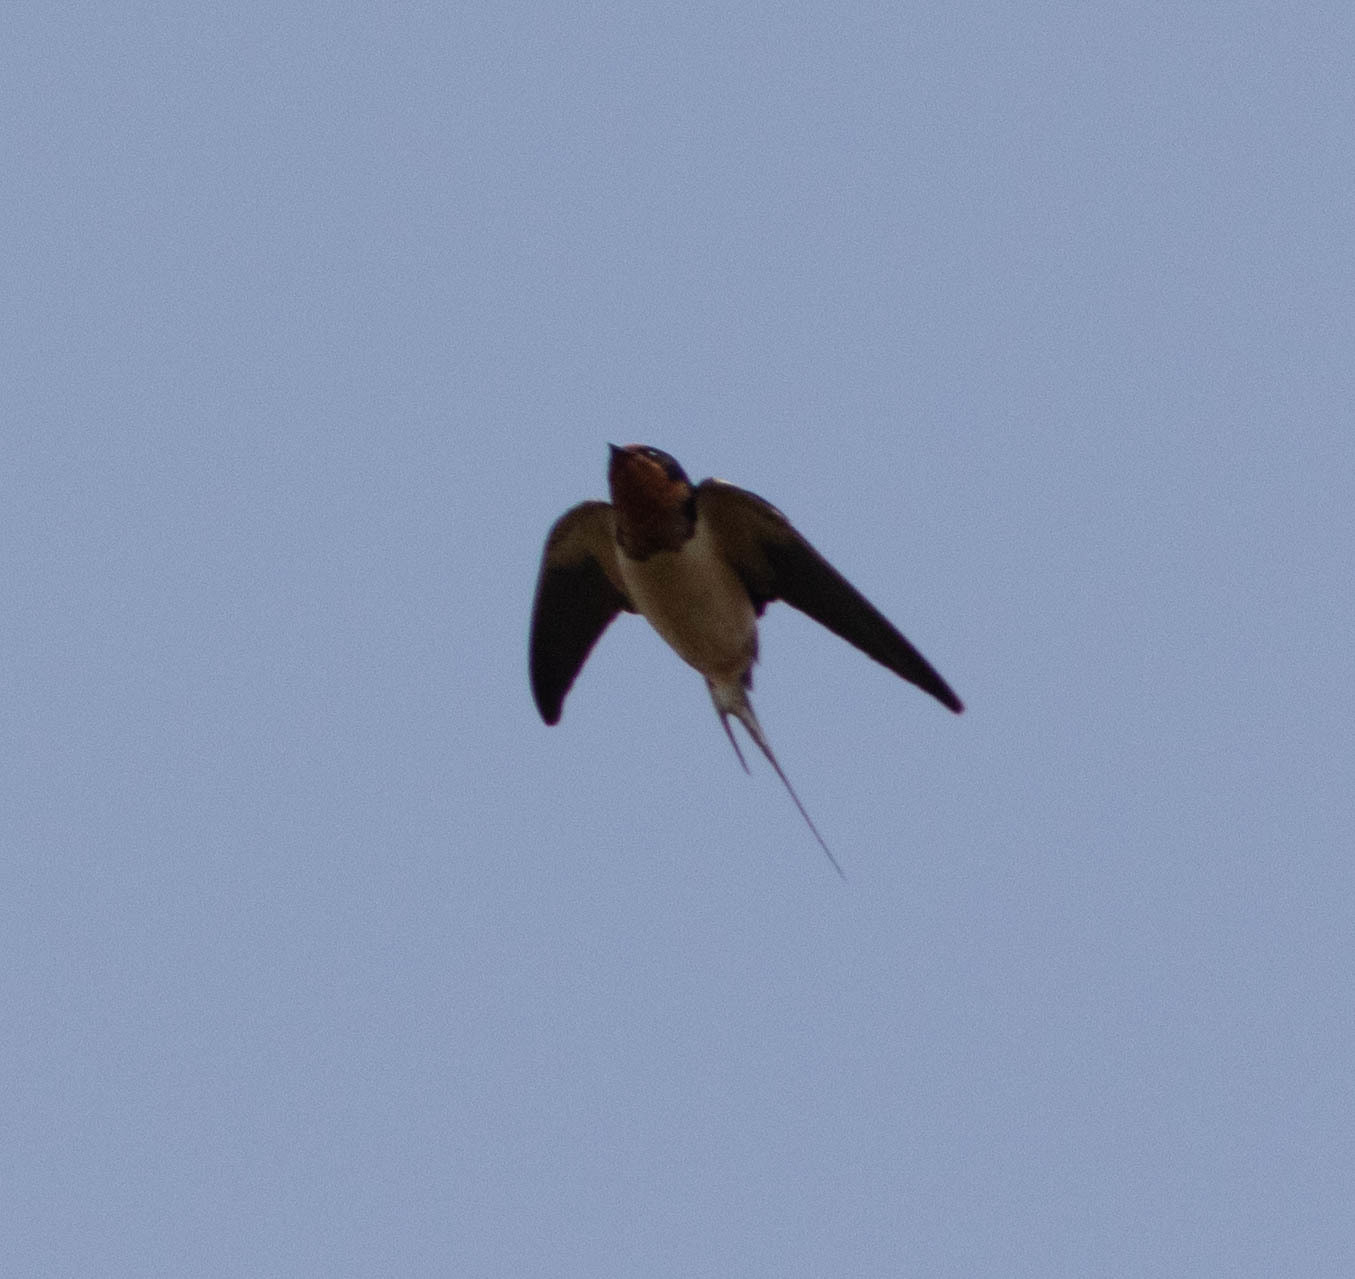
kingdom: Animalia
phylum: Chordata
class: Aves
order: Passeriformes
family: Hirundinidae
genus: Hirundo
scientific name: Hirundo rustica
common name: Barn swallow
